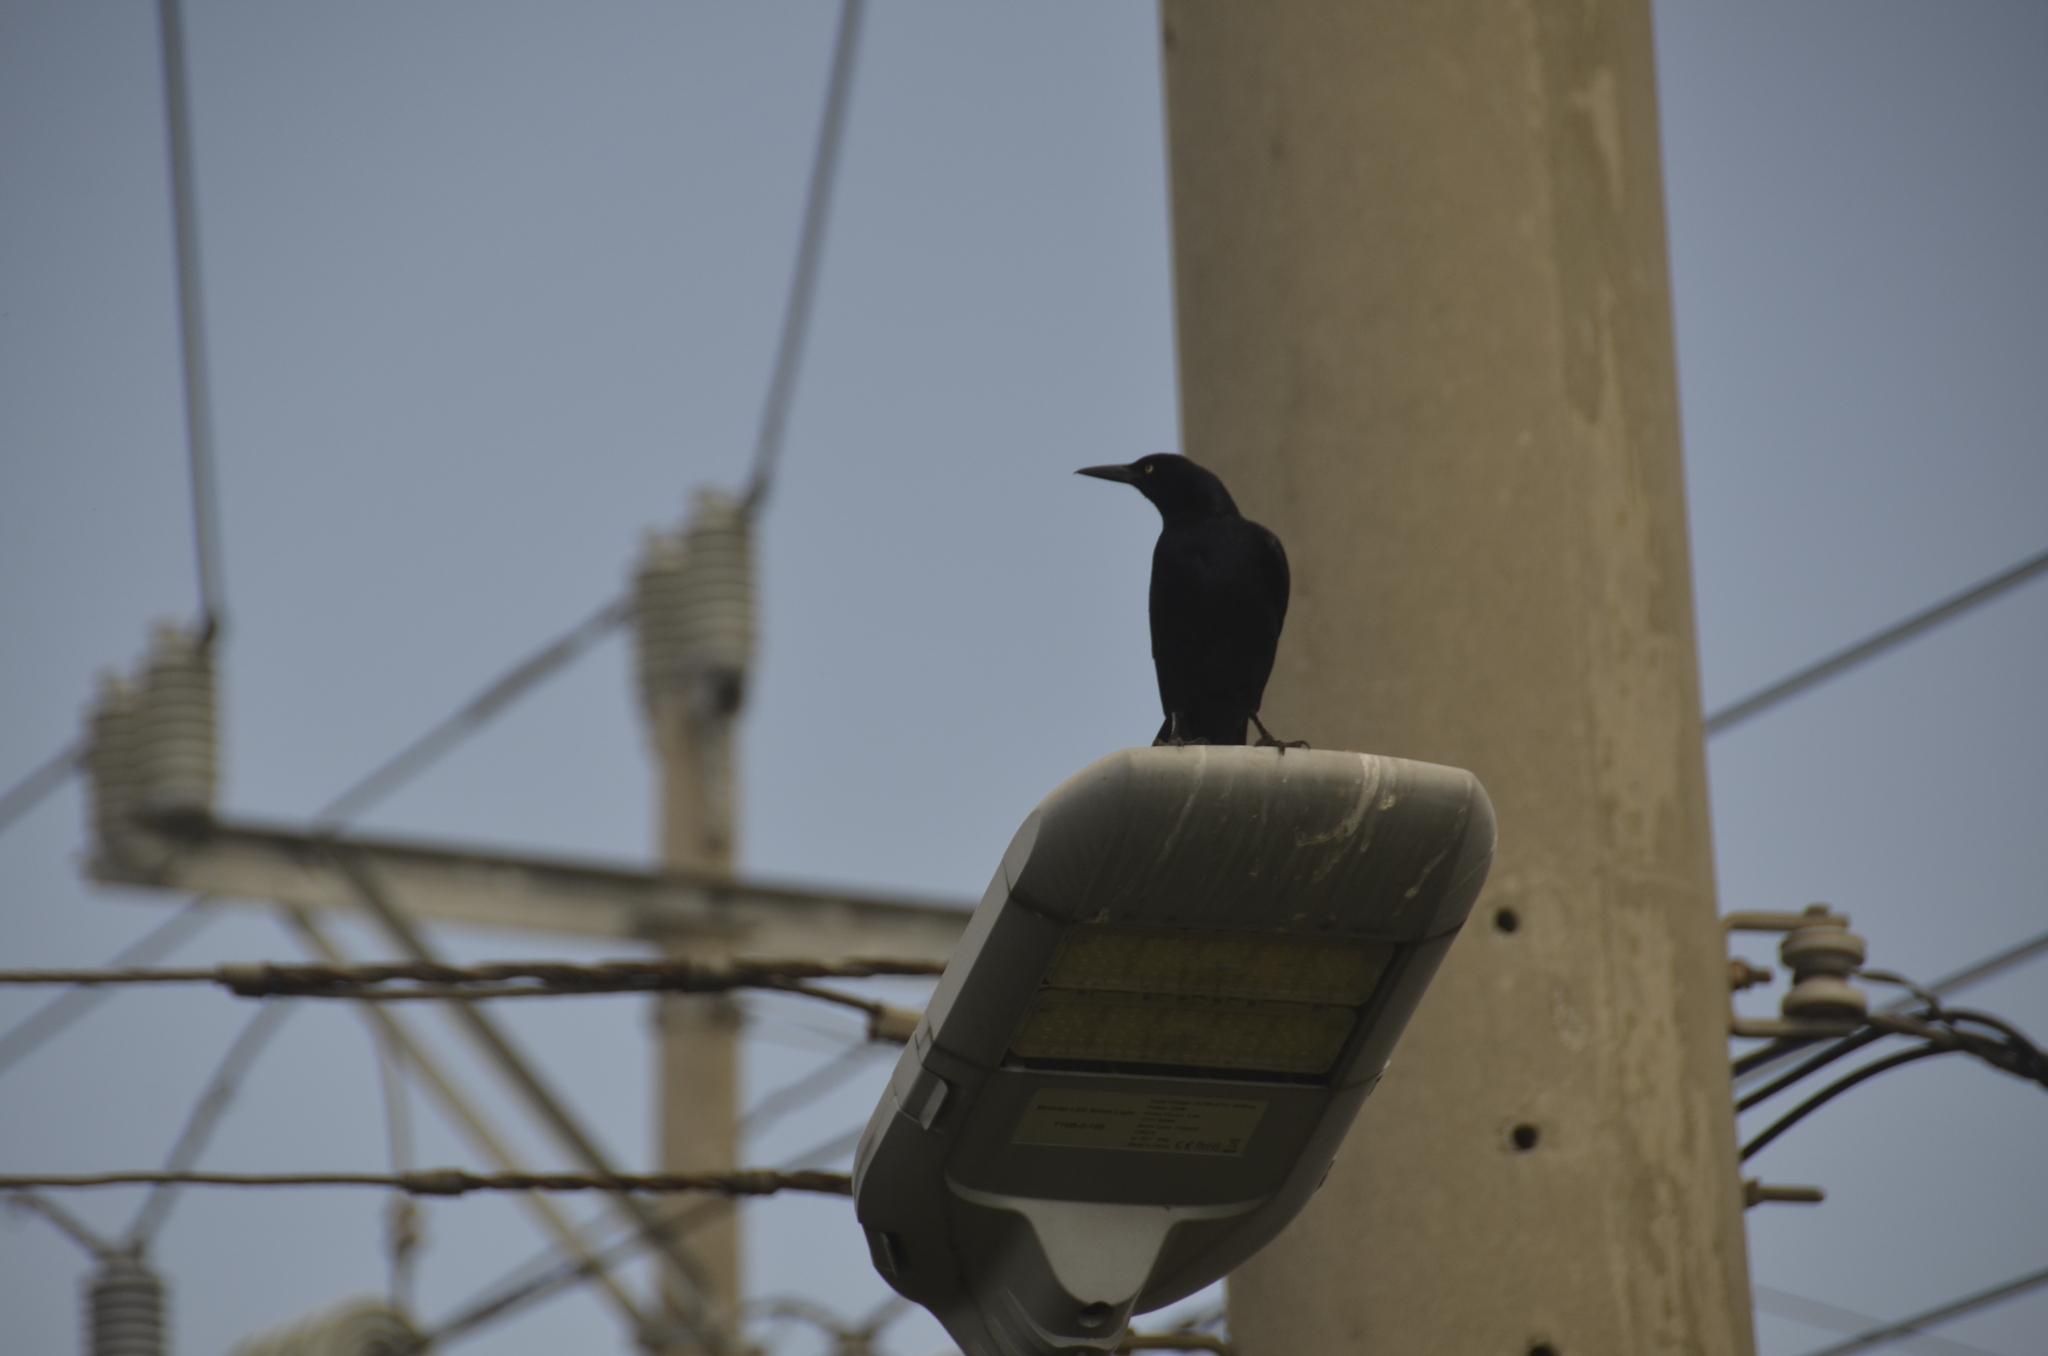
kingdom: Animalia
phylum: Chordata
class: Aves
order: Passeriformes
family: Icteridae
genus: Quiscalus
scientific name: Quiscalus mexicanus
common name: Great-tailed grackle
